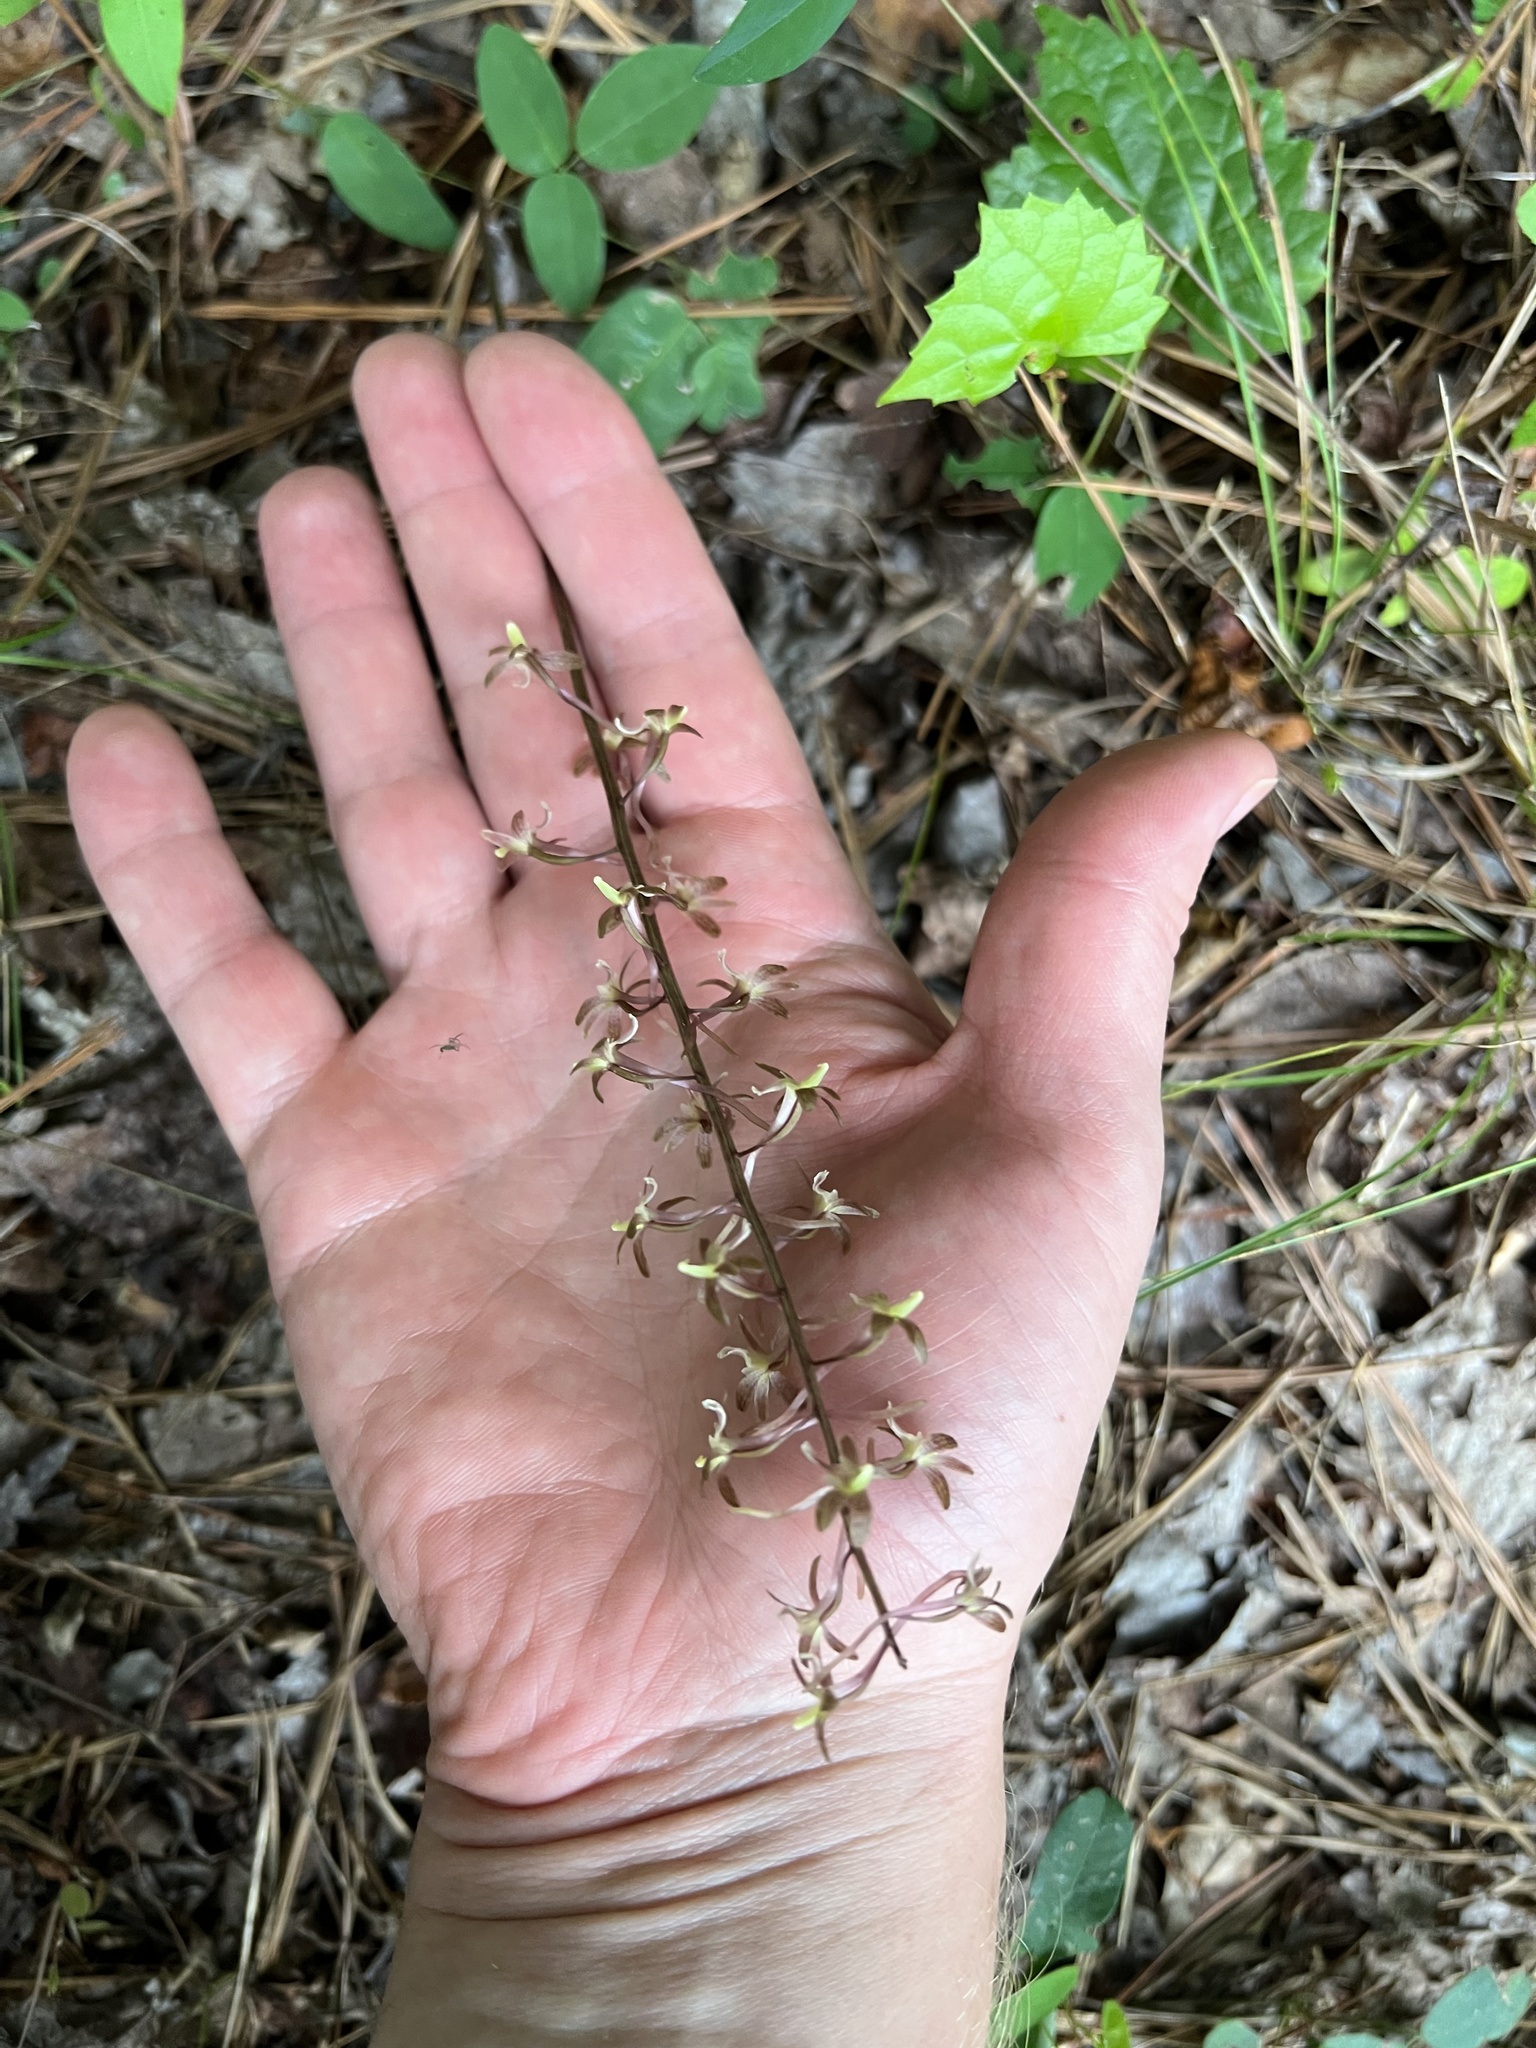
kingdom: Plantae
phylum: Tracheophyta
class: Liliopsida
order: Asparagales
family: Orchidaceae
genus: Tipularia
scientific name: Tipularia discolor
